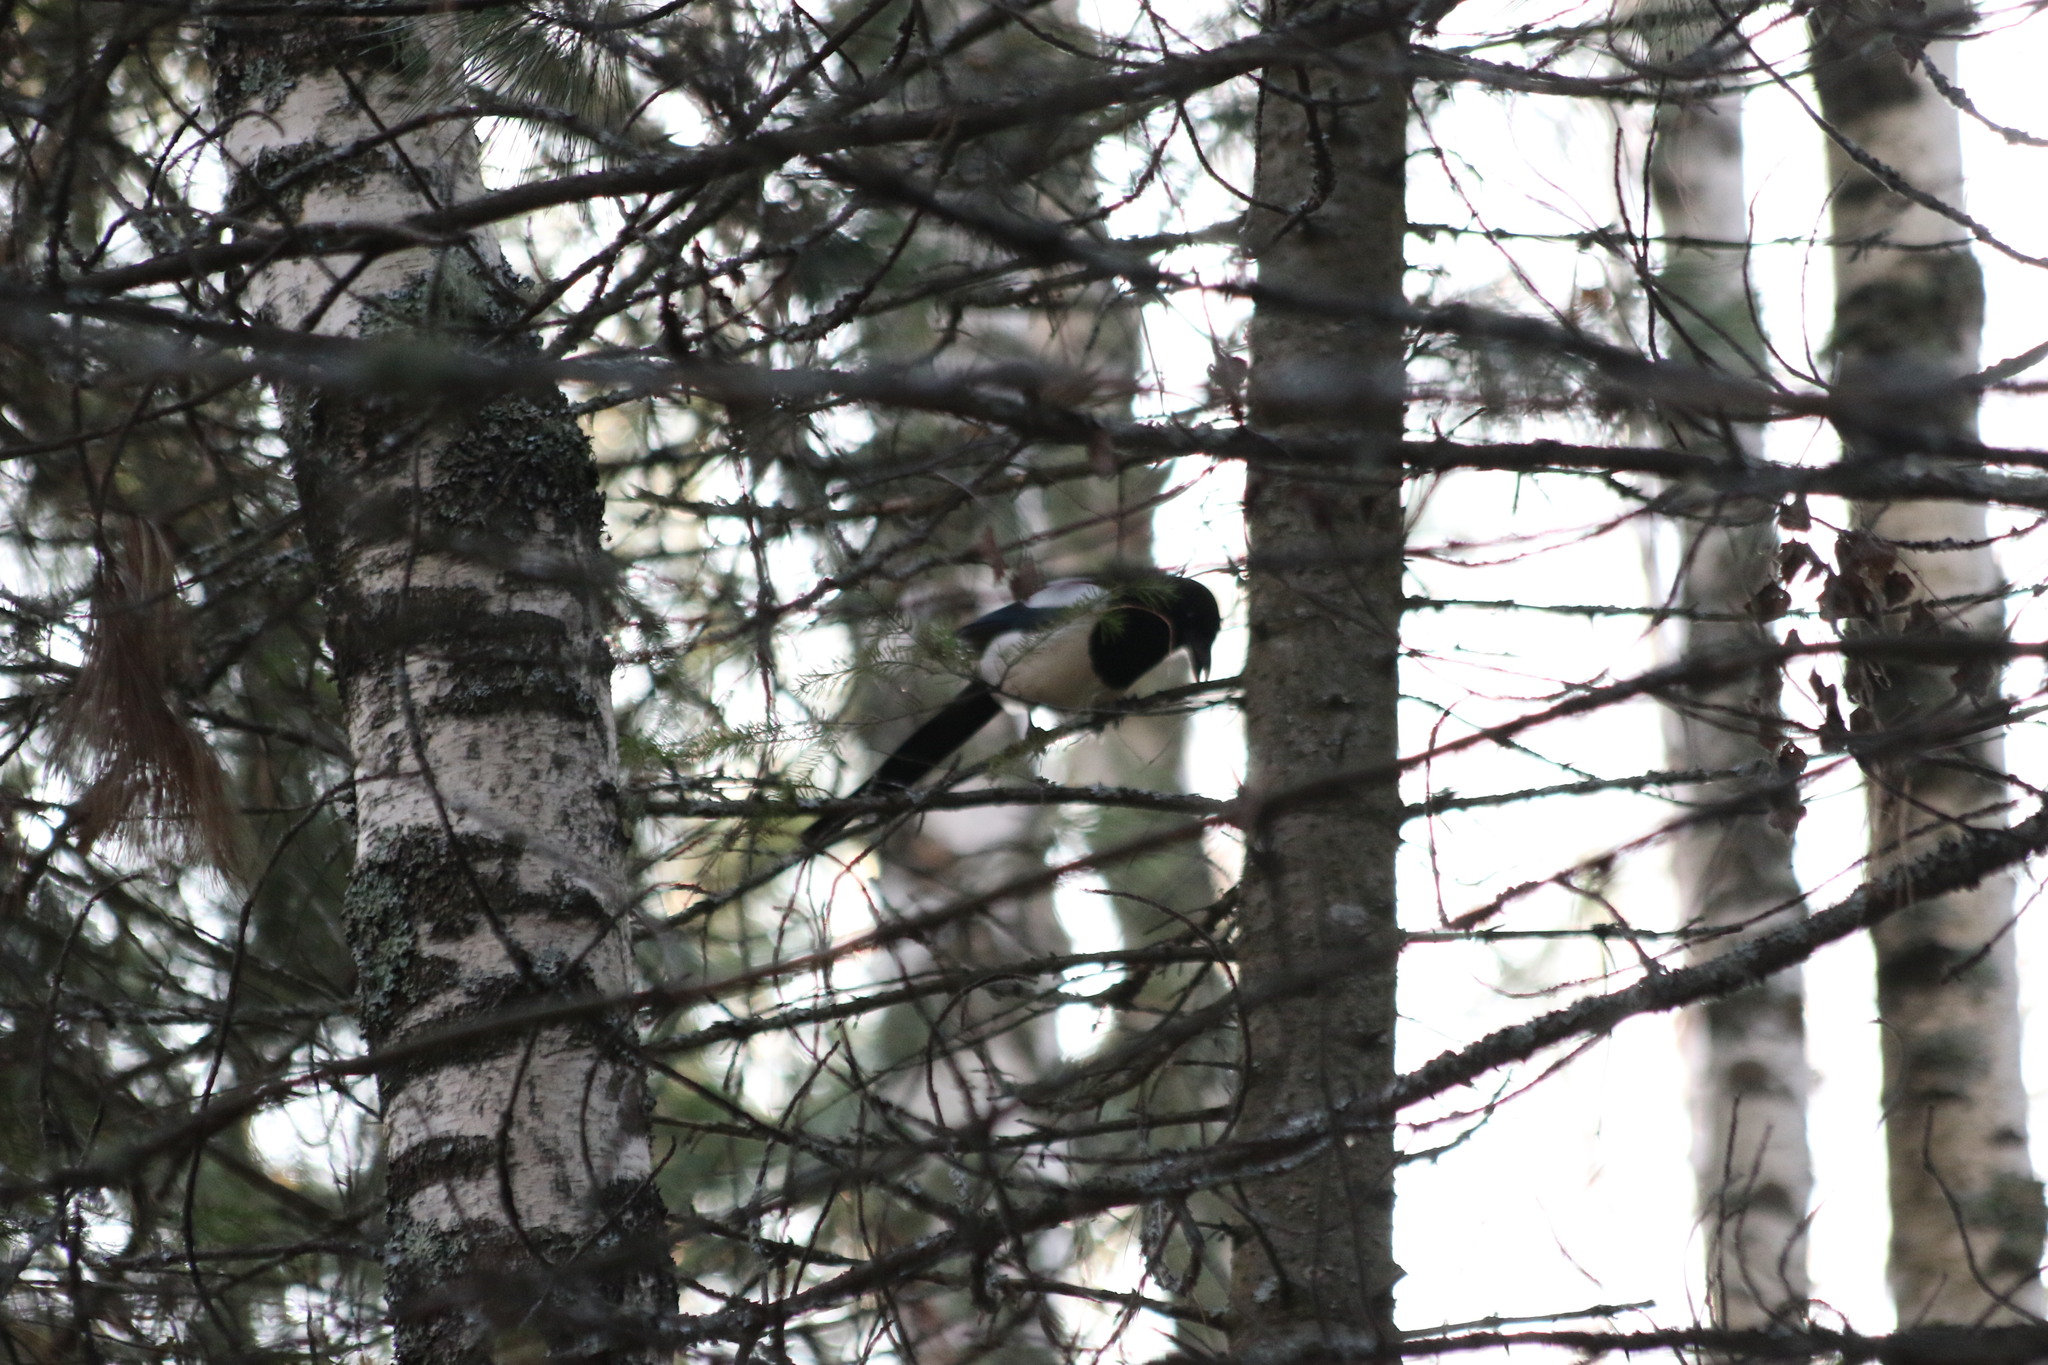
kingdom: Animalia
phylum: Chordata
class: Aves
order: Passeriformes
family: Corvidae
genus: Pica
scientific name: Pica pica
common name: Eurasian magpie
